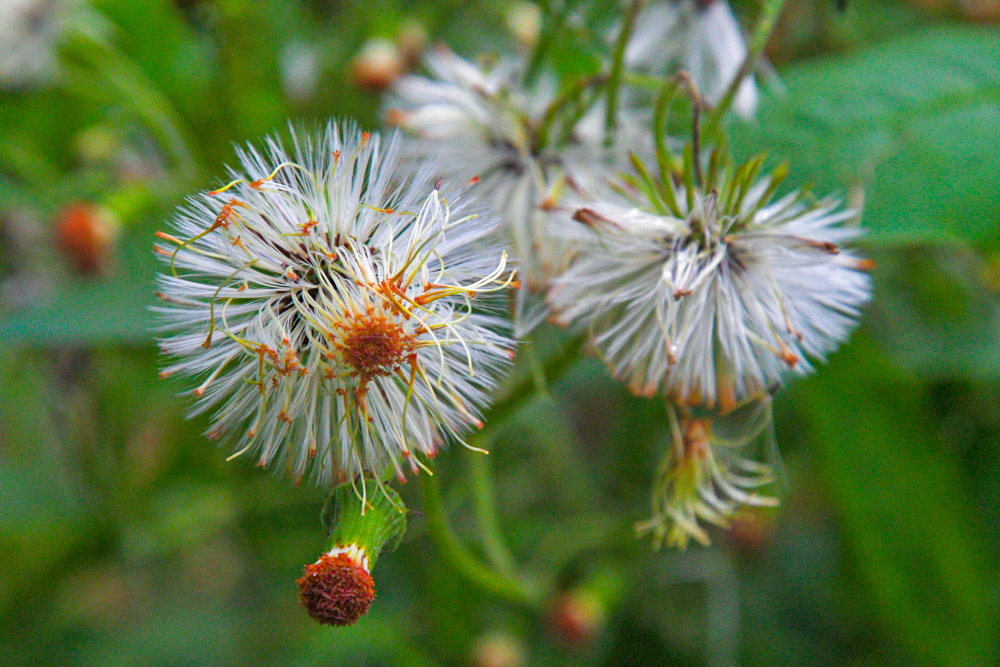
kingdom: Plantae
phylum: Tracheophyta
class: Magnoliopsida
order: Asterales
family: Asteraceae
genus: Crassocephalum
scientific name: Crassocephalum crepidioides
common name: Redflower ragleaf
